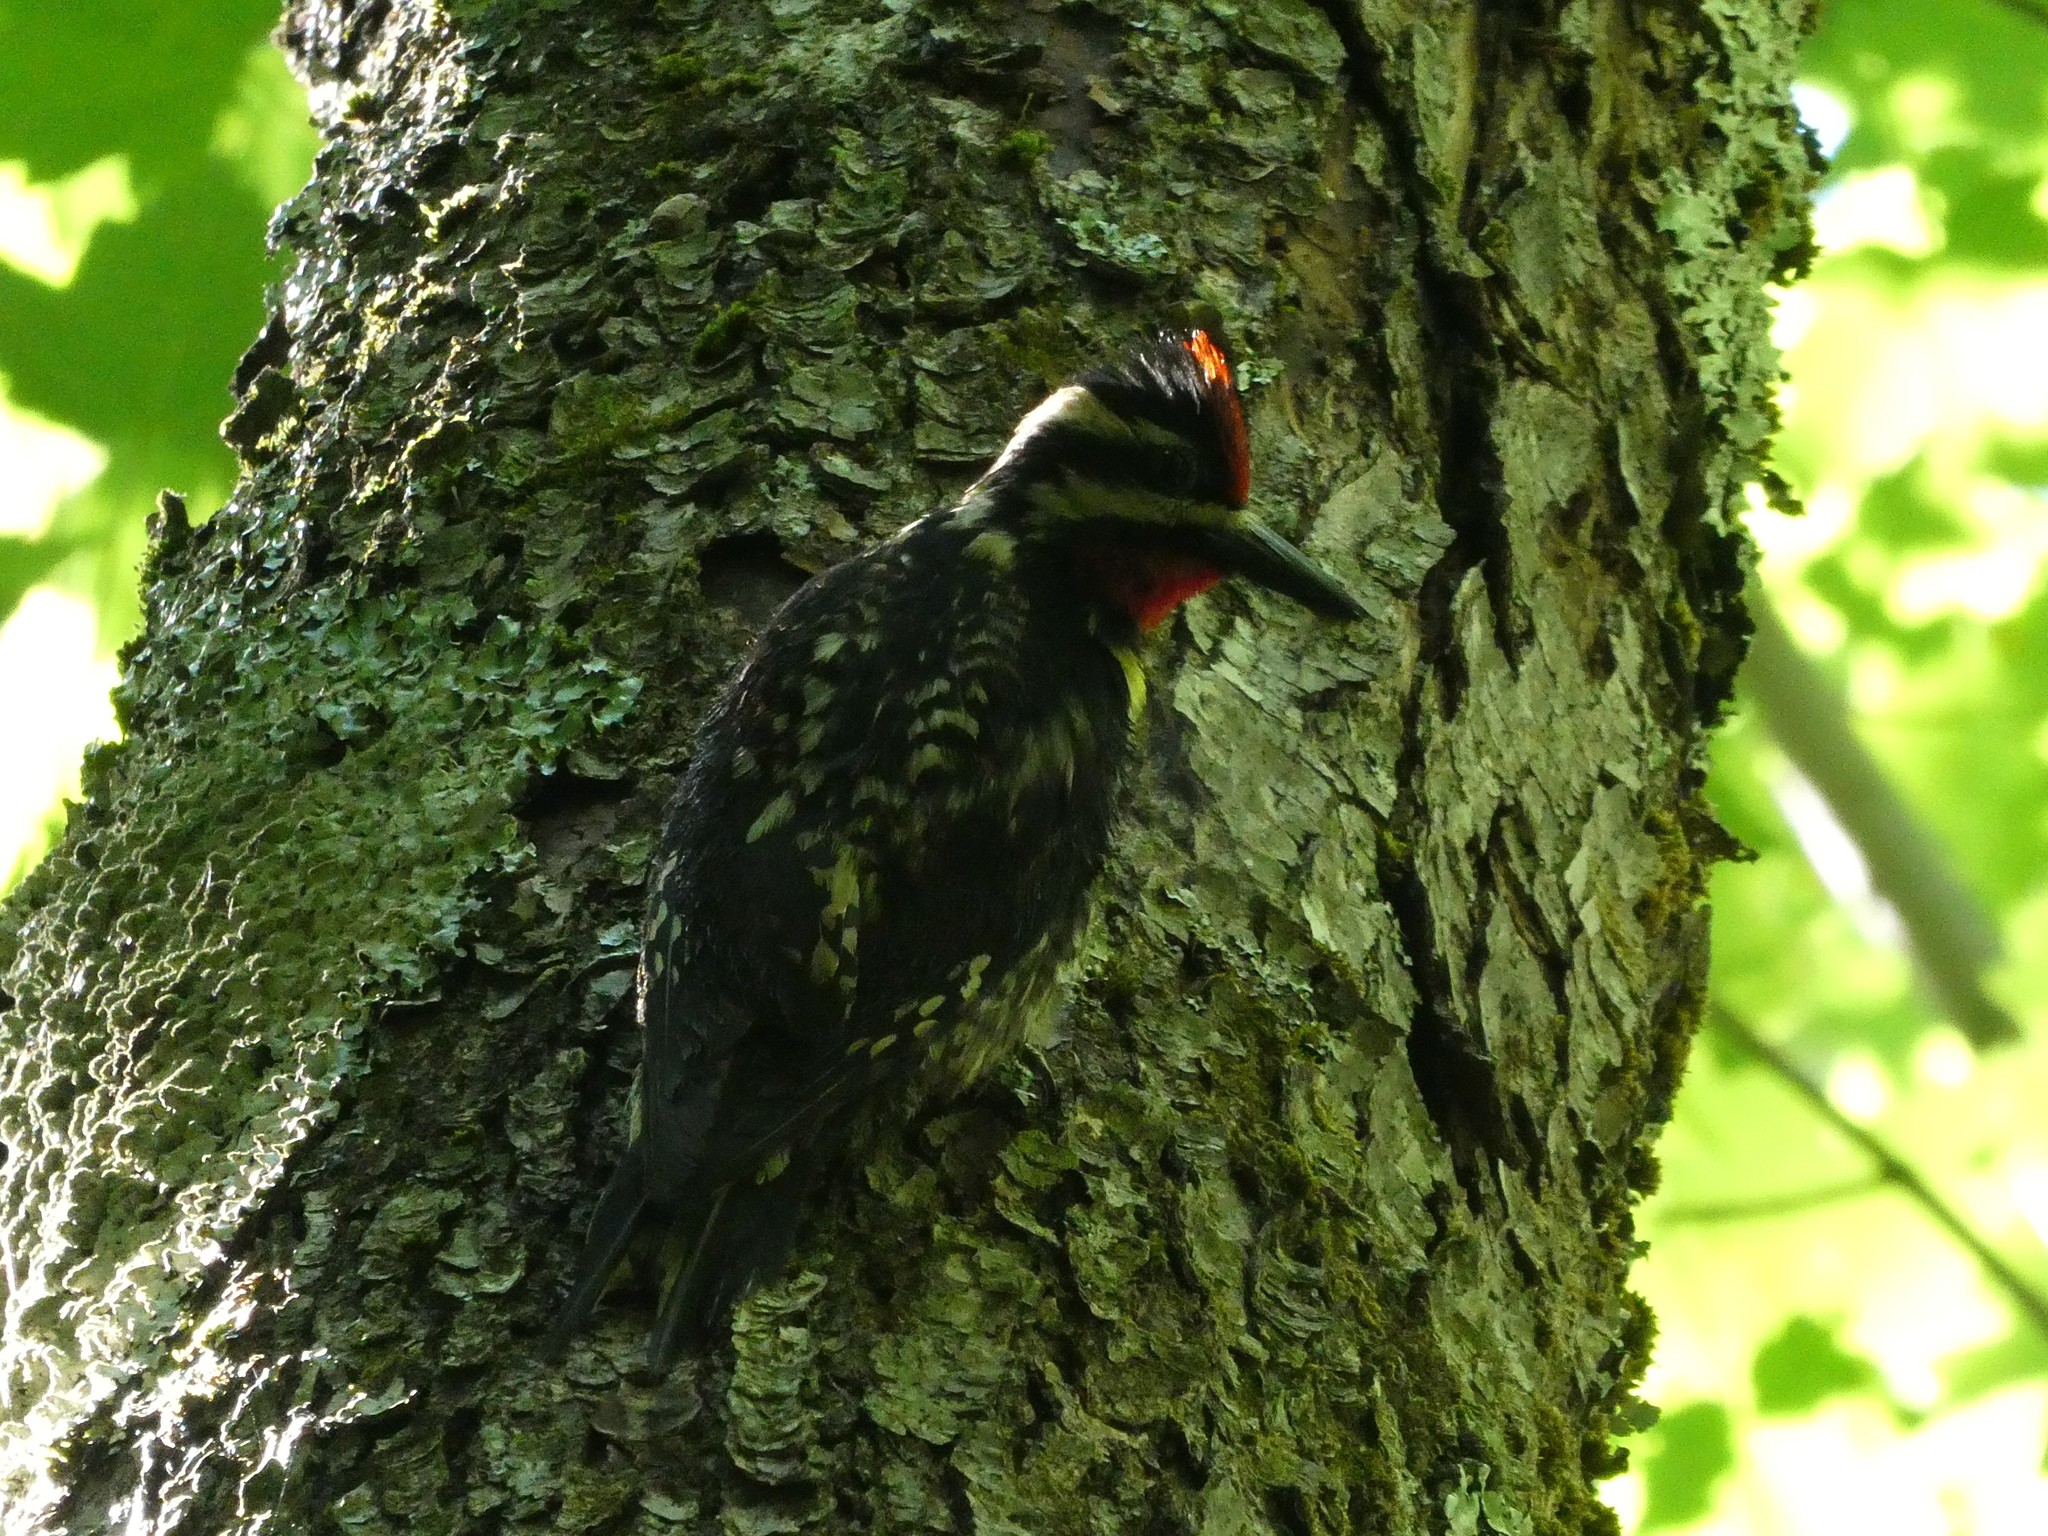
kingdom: Animalia
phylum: Chordata
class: Aves
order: Piciformes
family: Picidae
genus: Sphyrapicus
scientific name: Sphyrapicus varius
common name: Yellow-bellied sapsucker
